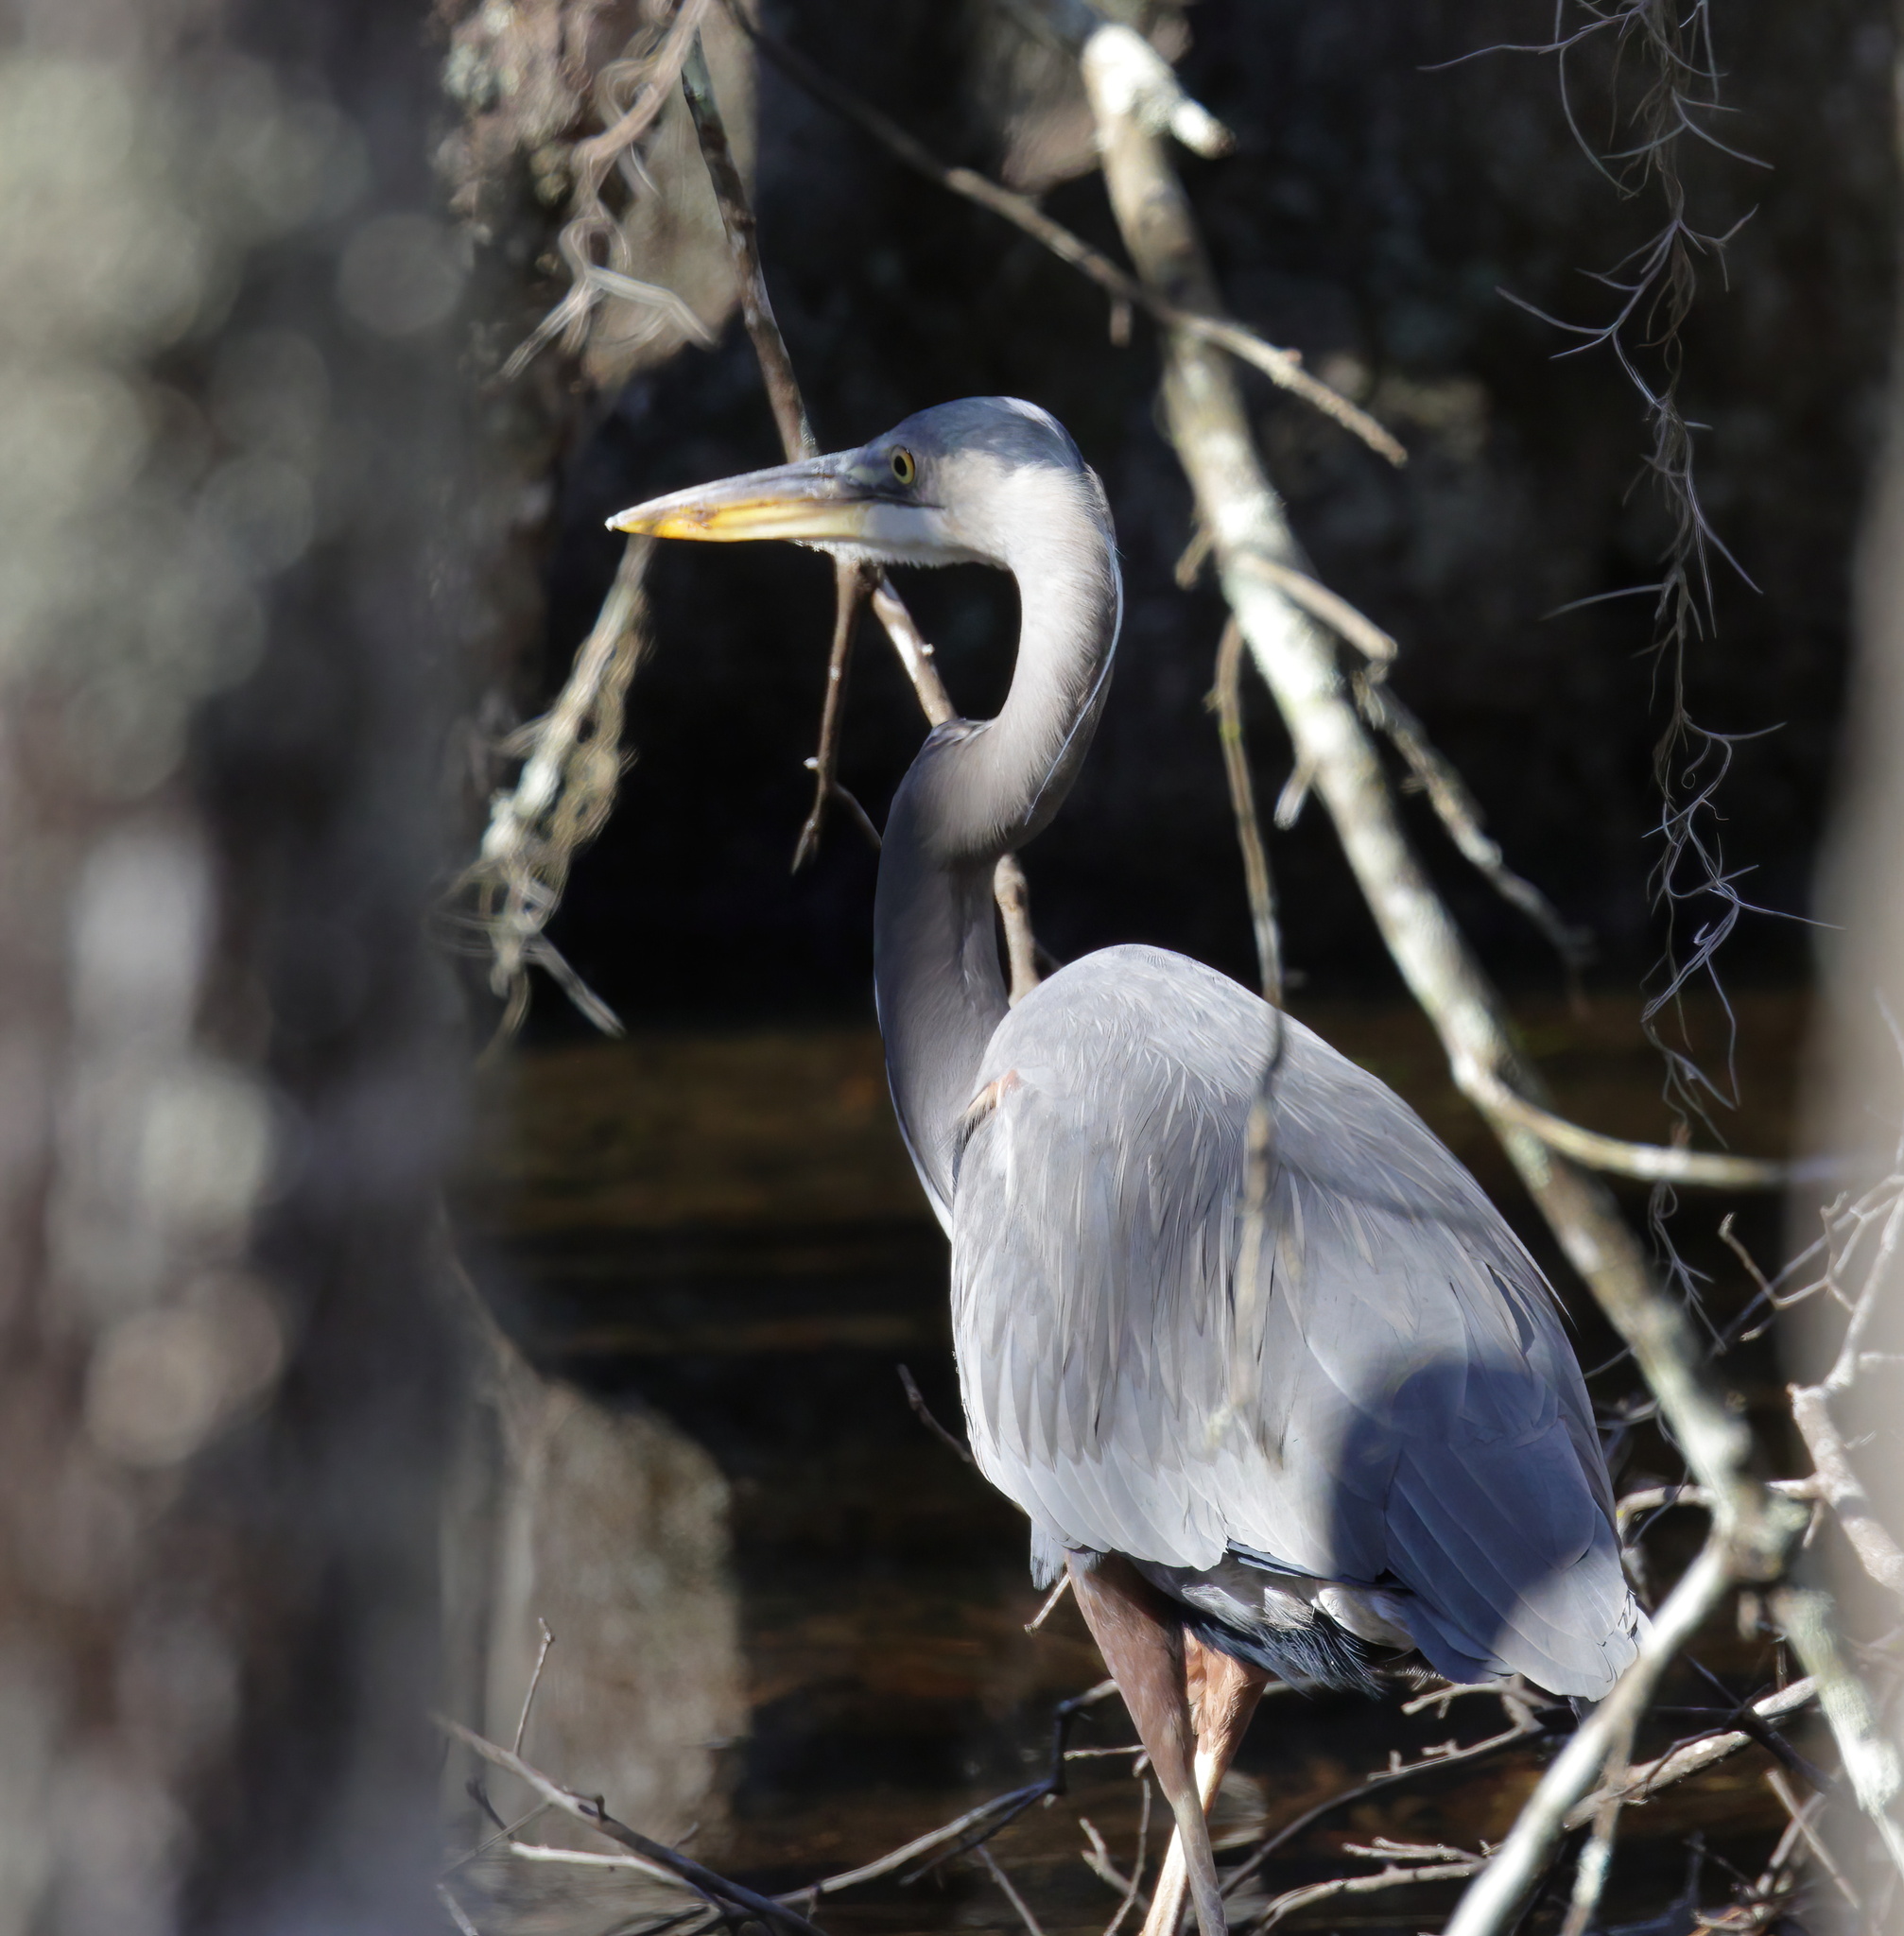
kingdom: Animalia
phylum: Chordata
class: Aves
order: Pelecaniformes
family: Ardeidae
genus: Ardea
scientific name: Ardea herodias
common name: Great blue heron
